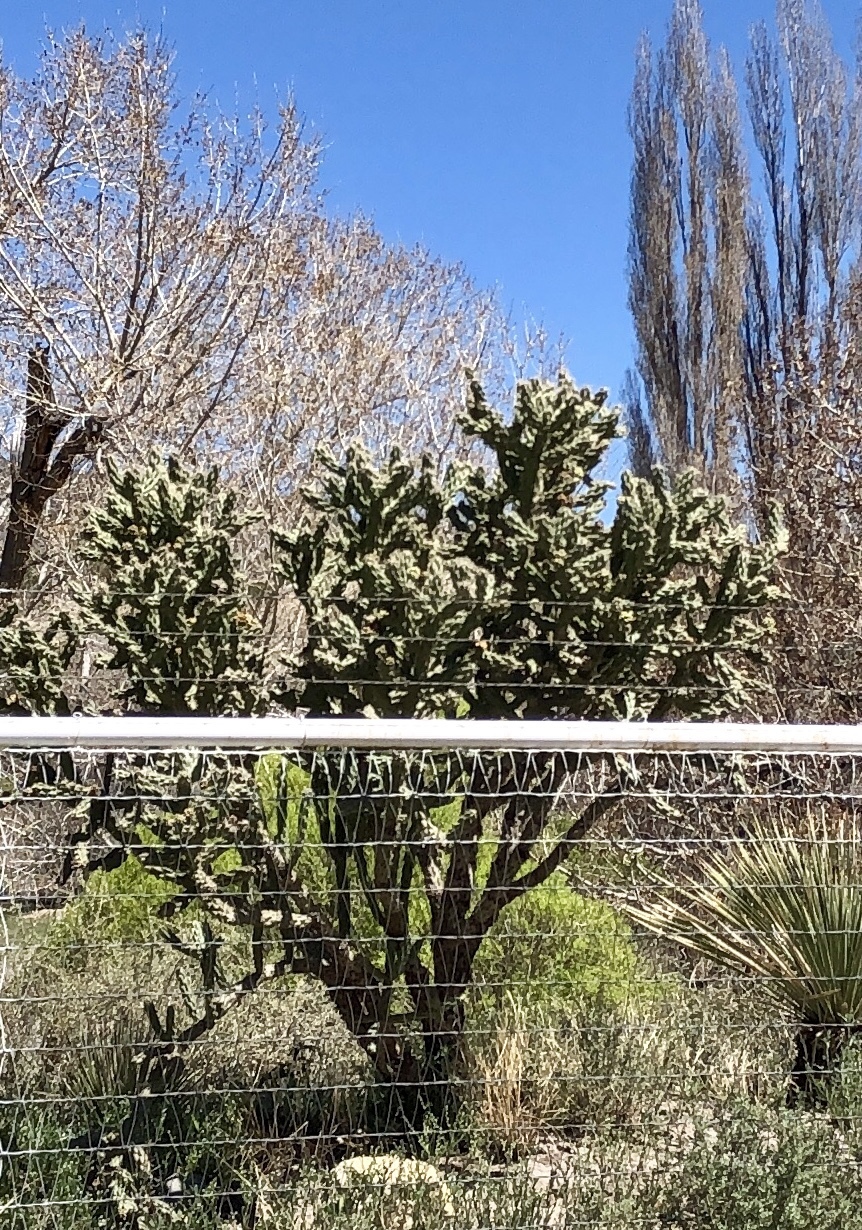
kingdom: Plantae
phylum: Tracheophyta
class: Magnoliopsida
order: Caryophyllales
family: Cactaceae
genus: Cylindropuntia
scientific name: Cylindropuntia imbricata
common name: Candelabrum cactus
